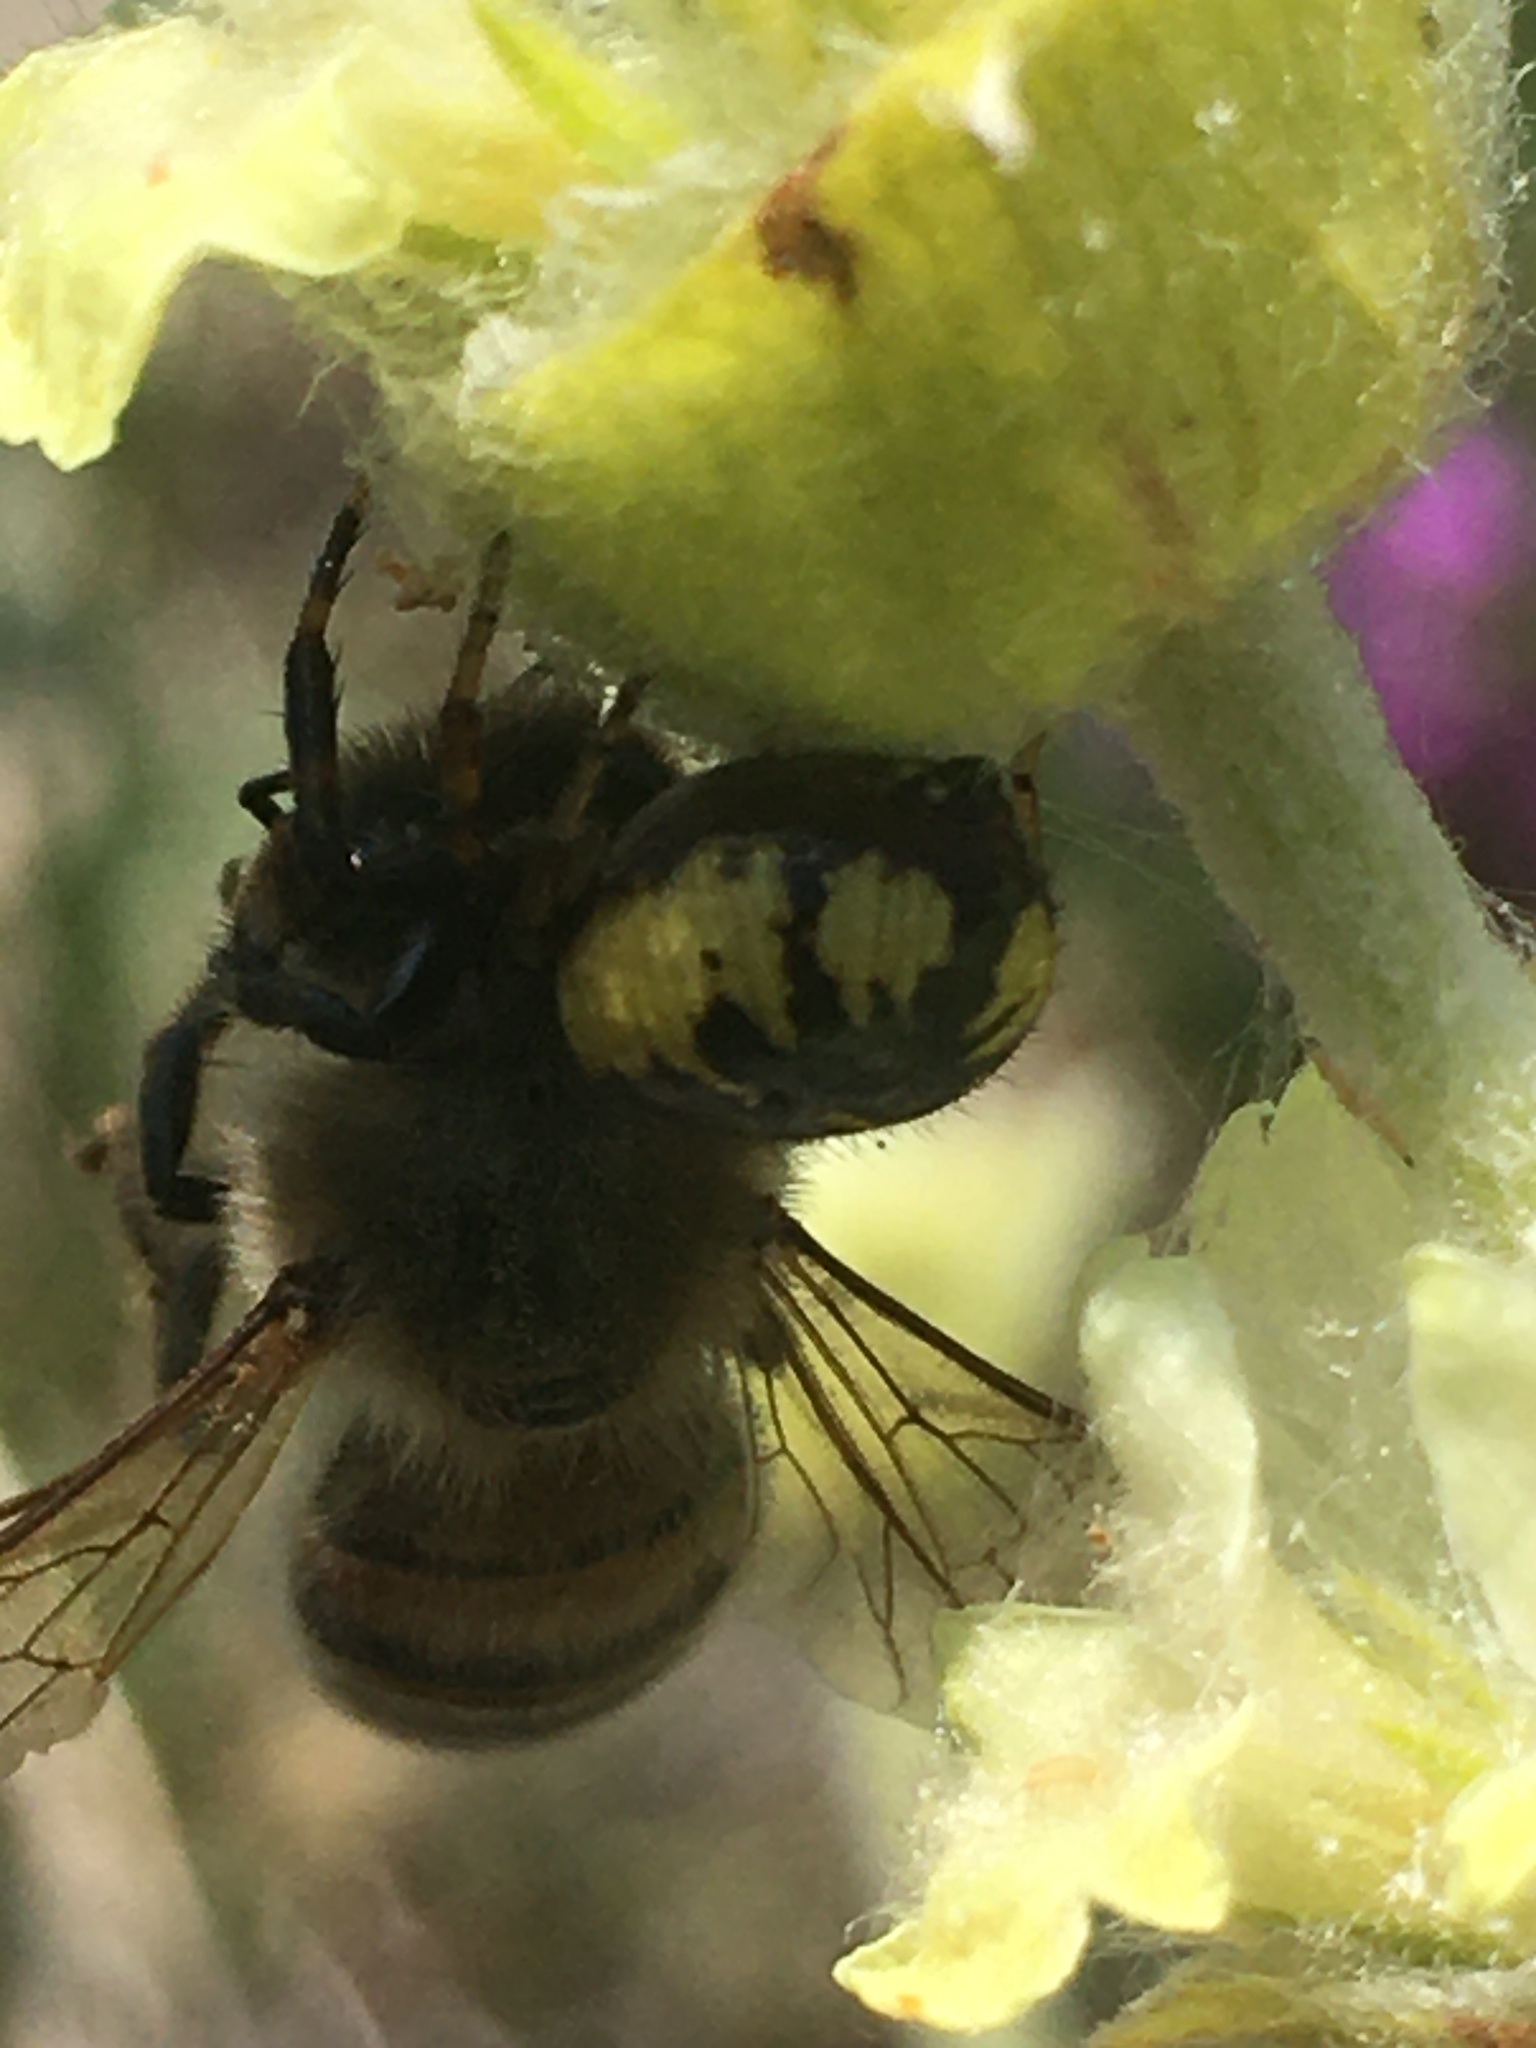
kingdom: Animalia
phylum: Arthropoda
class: Arachnida
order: Araneae
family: Thomisidae
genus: Synema
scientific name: Synema globosum
